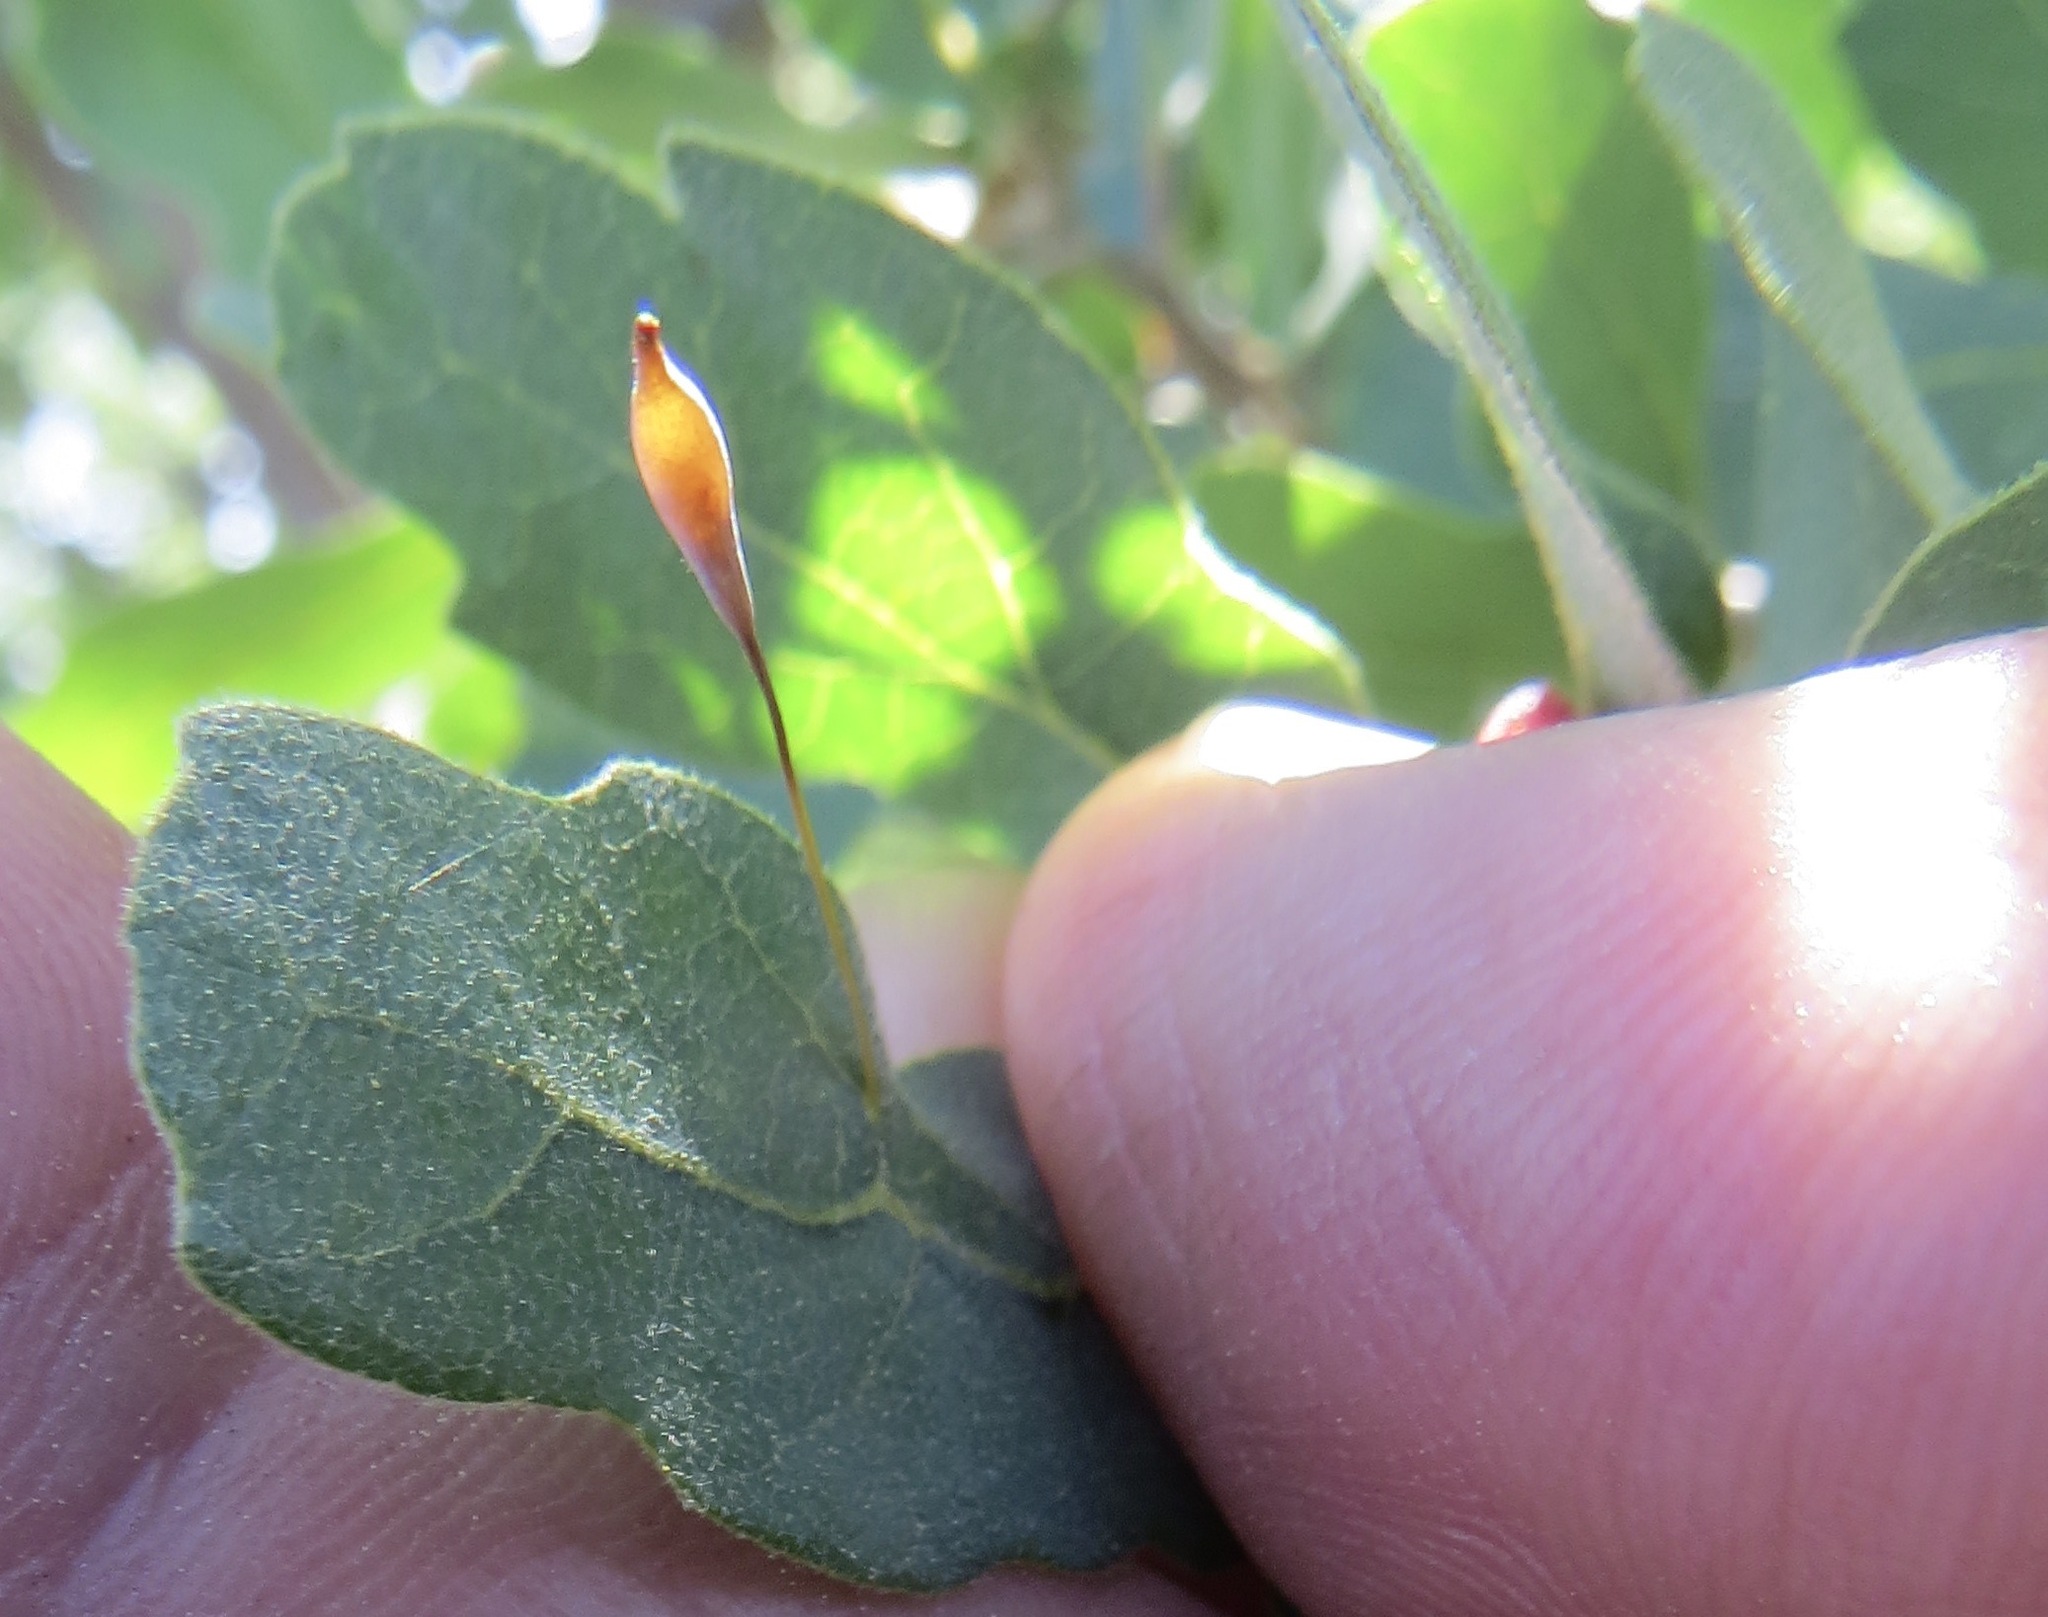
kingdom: Animalia
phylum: Arthropoda
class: Insecta
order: Hymenoptera
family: Cynipidae
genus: Andricus
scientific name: Andricus
